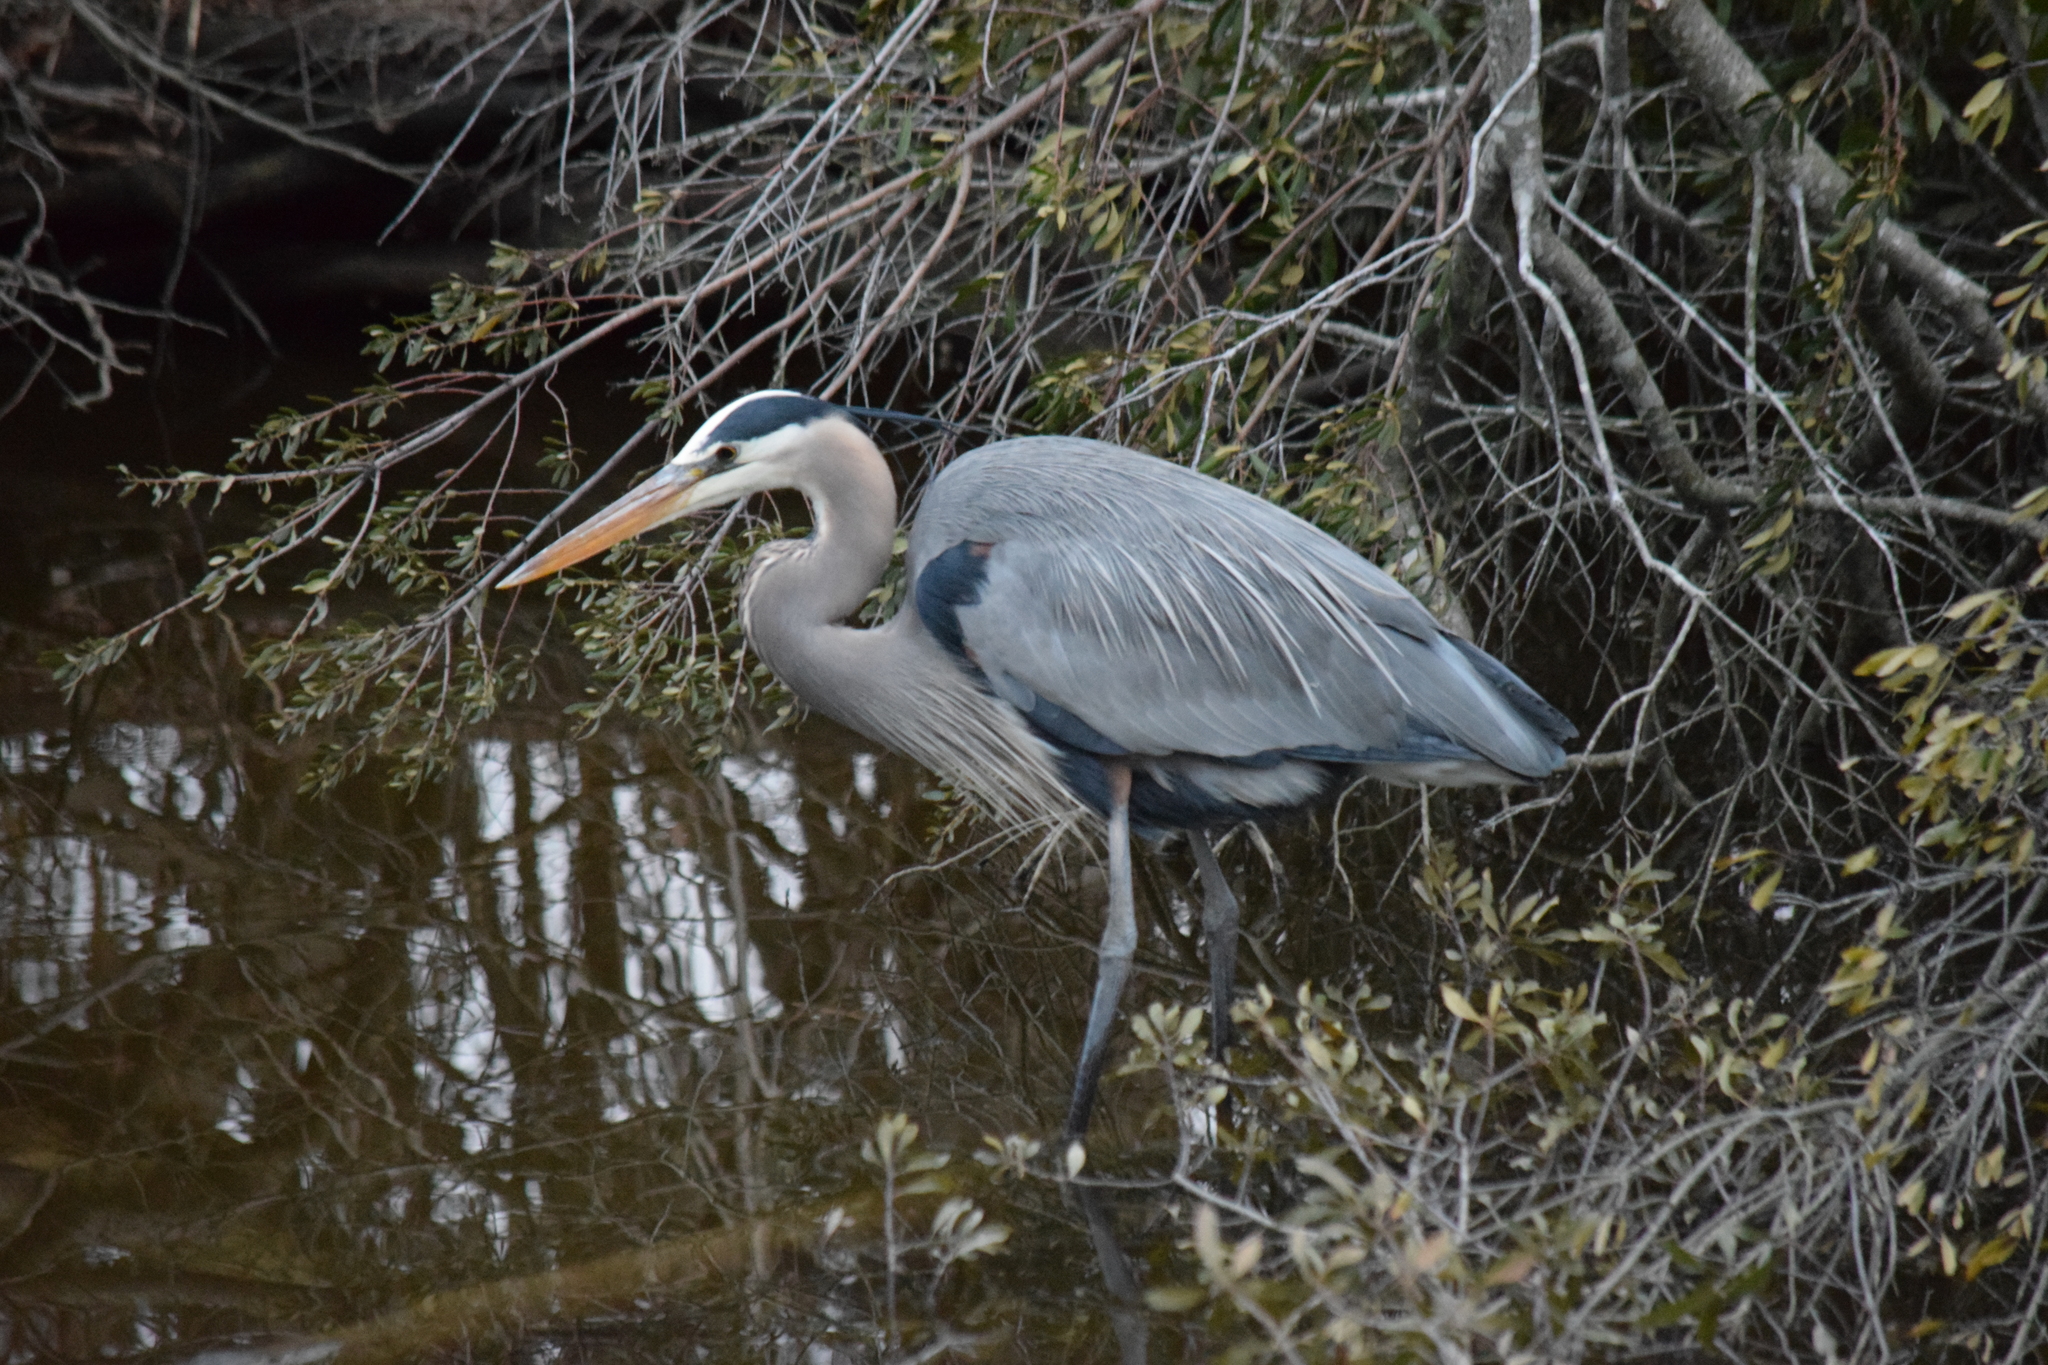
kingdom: Animalia
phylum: Chordata
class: Aves
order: Pelecaniformes
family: Ardeidae
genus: Ardea
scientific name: Ardea herodias
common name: Great blue heron
